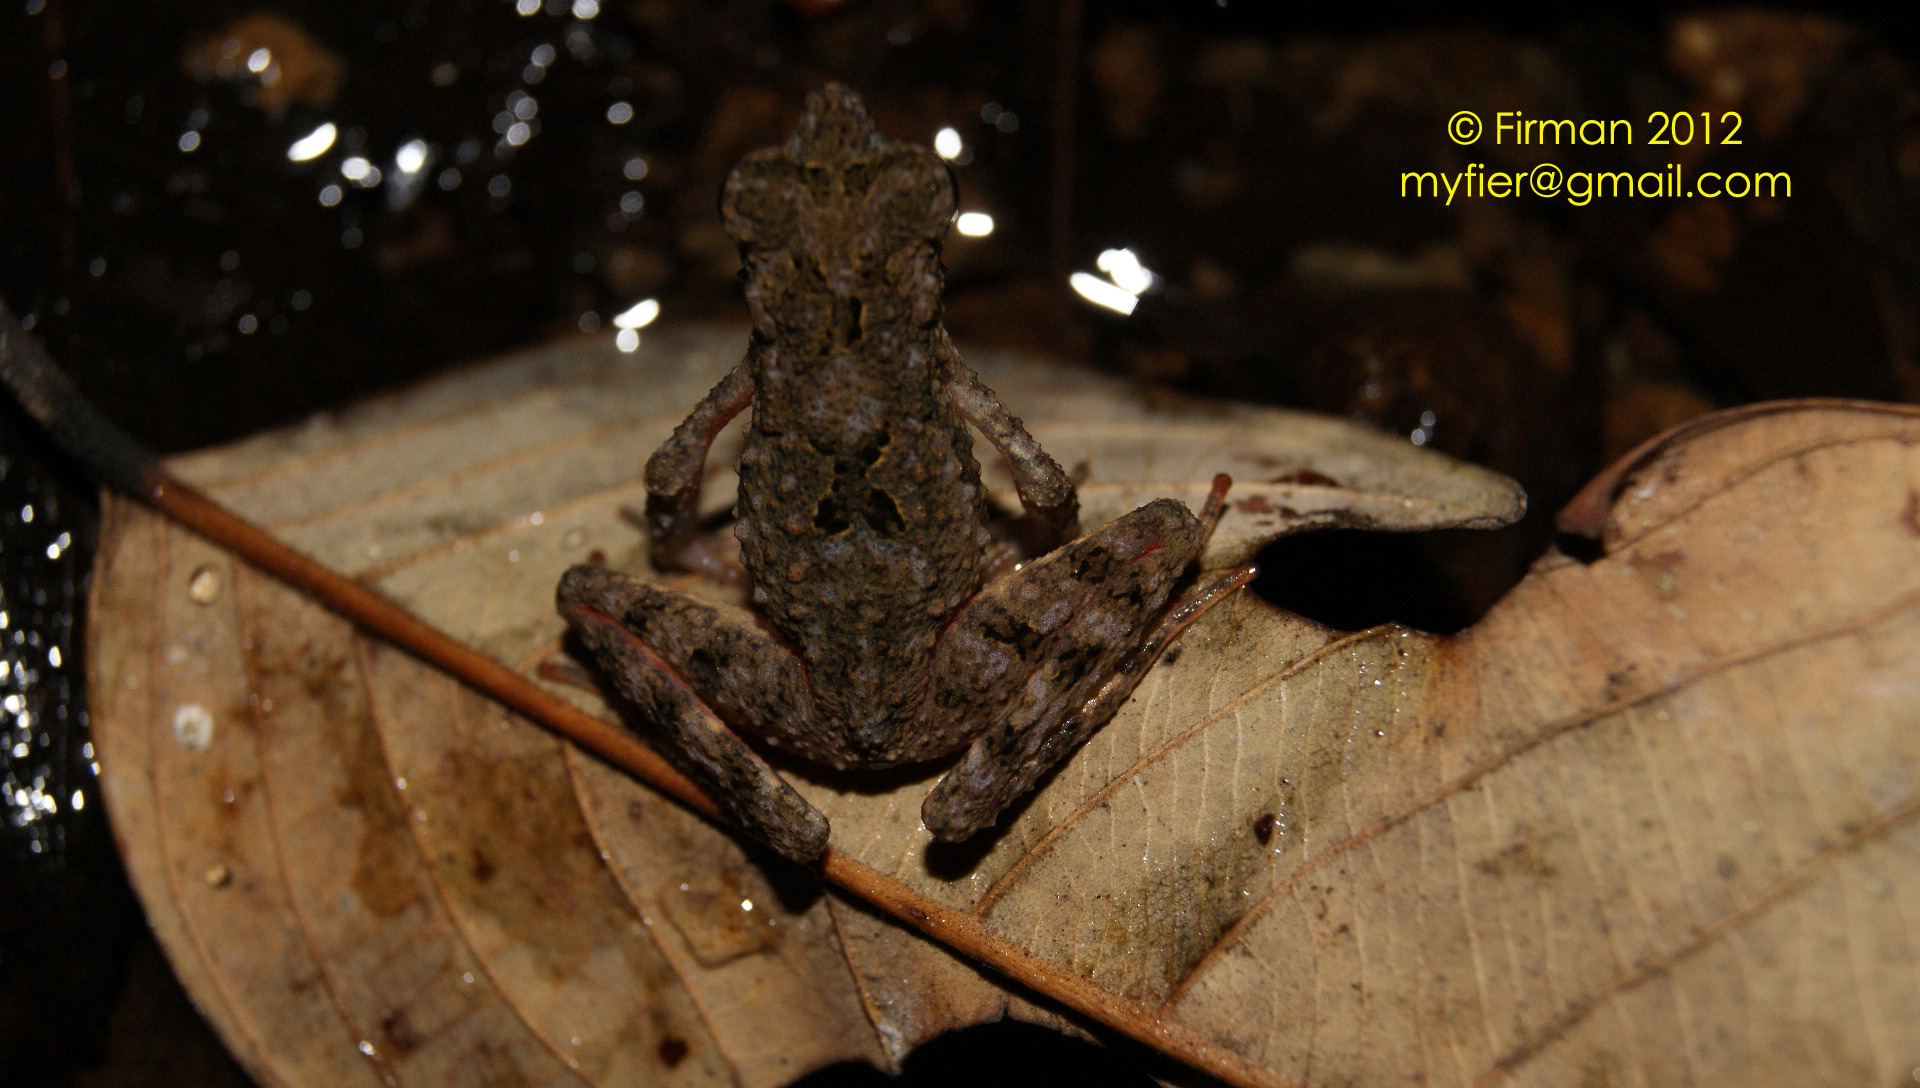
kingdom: Animalia
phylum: Chordata
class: Amphibia
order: Anura
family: Bufonidae
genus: Leptophryne
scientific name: Leptophryne borbonica
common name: Hour-glass slender toad-cross toad
